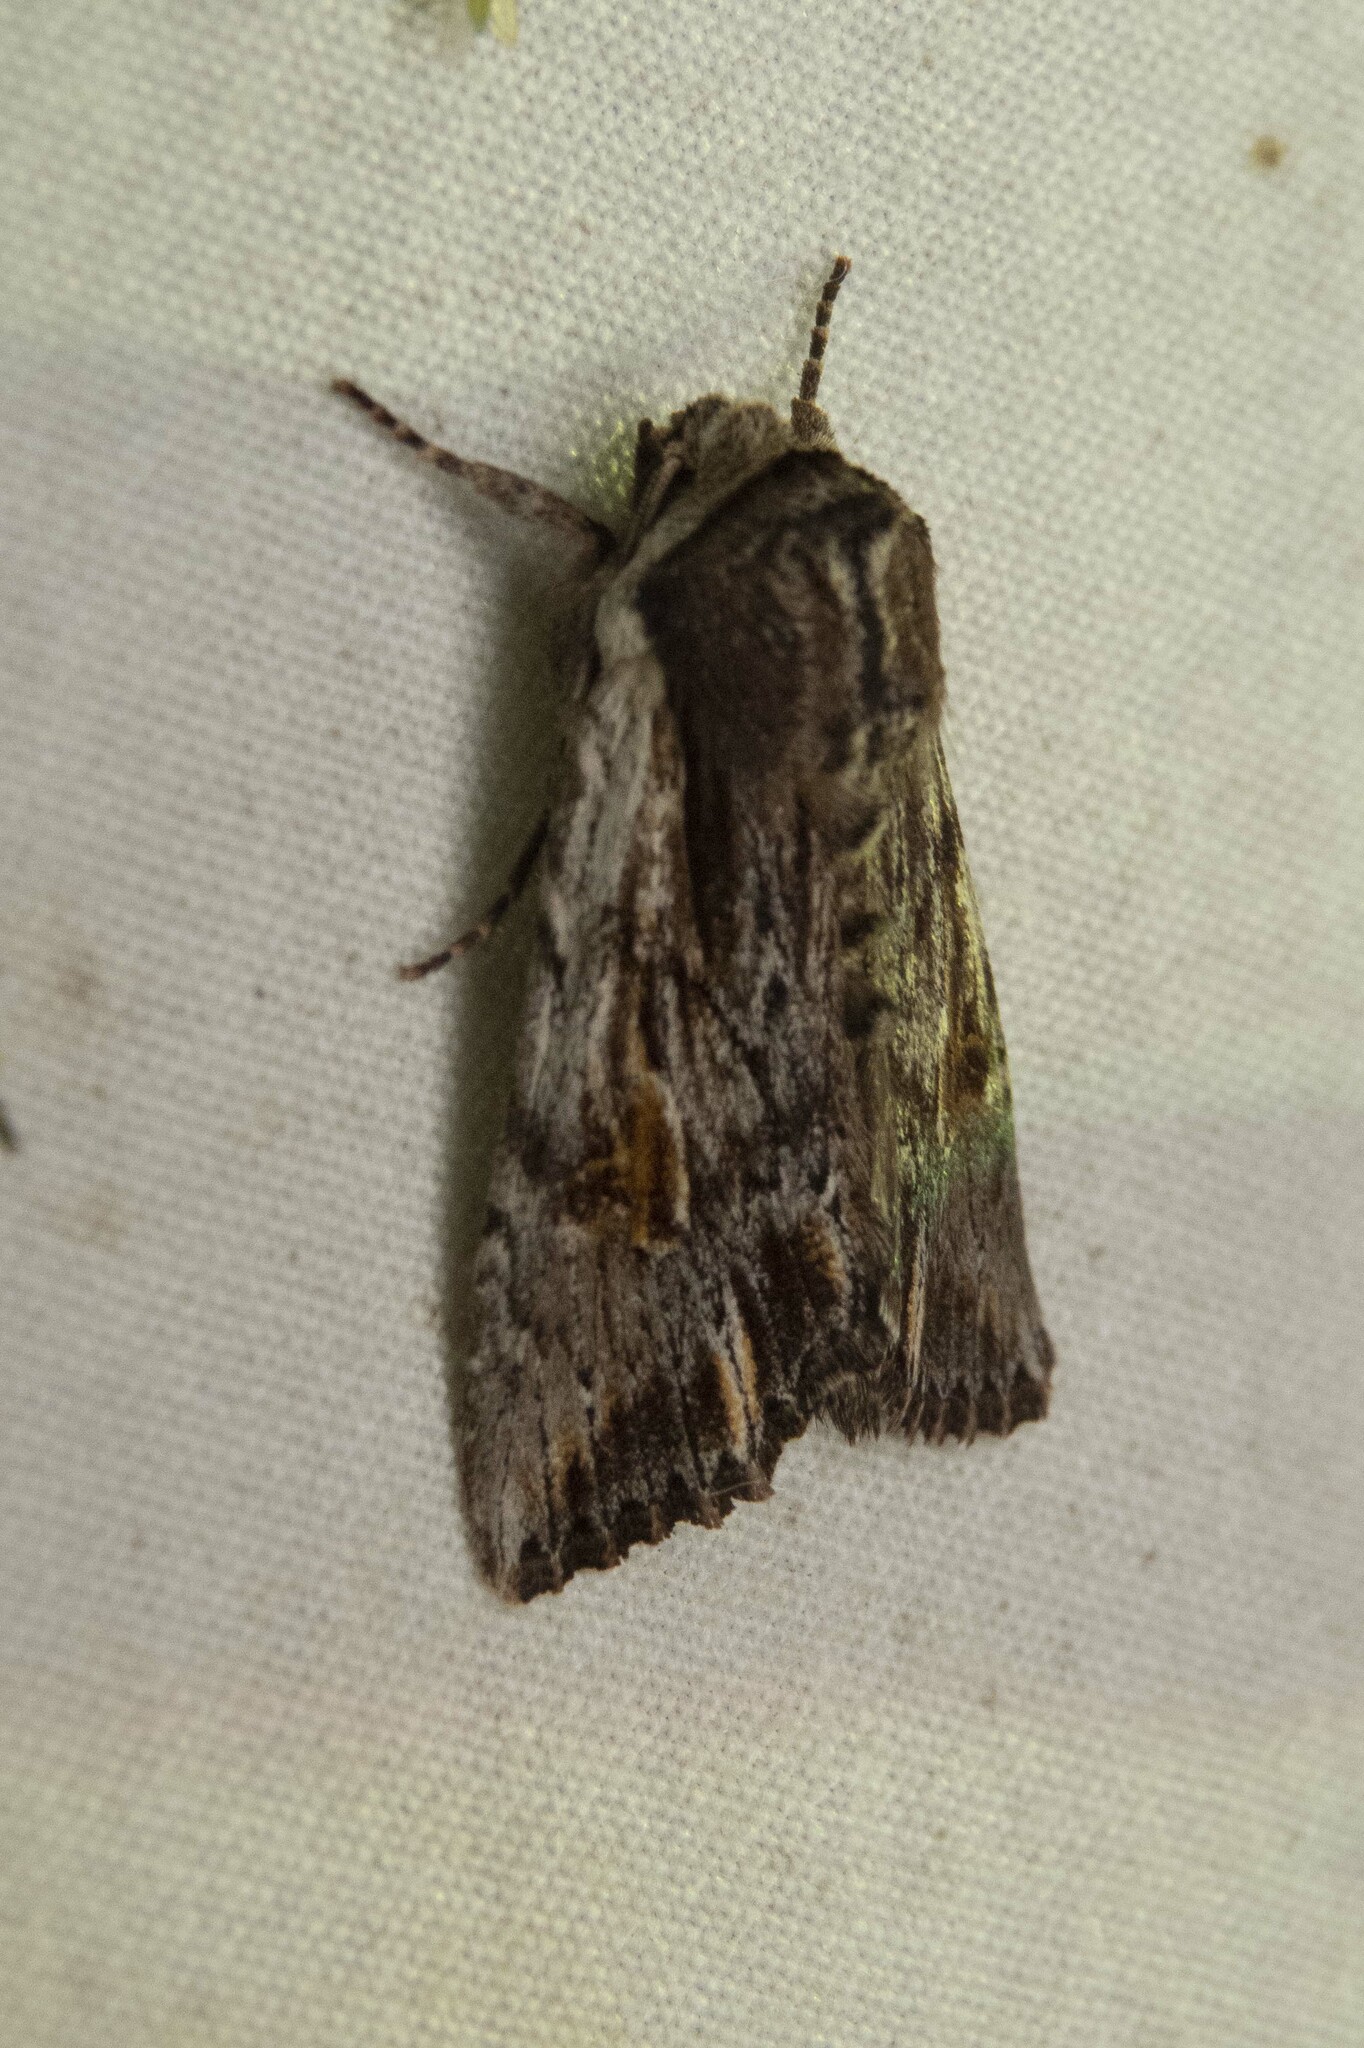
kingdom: Animalia
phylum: Arthropoda
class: Insecta
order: Lepidoptera
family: Noctuidae
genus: Achatia
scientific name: Achatia evicta
